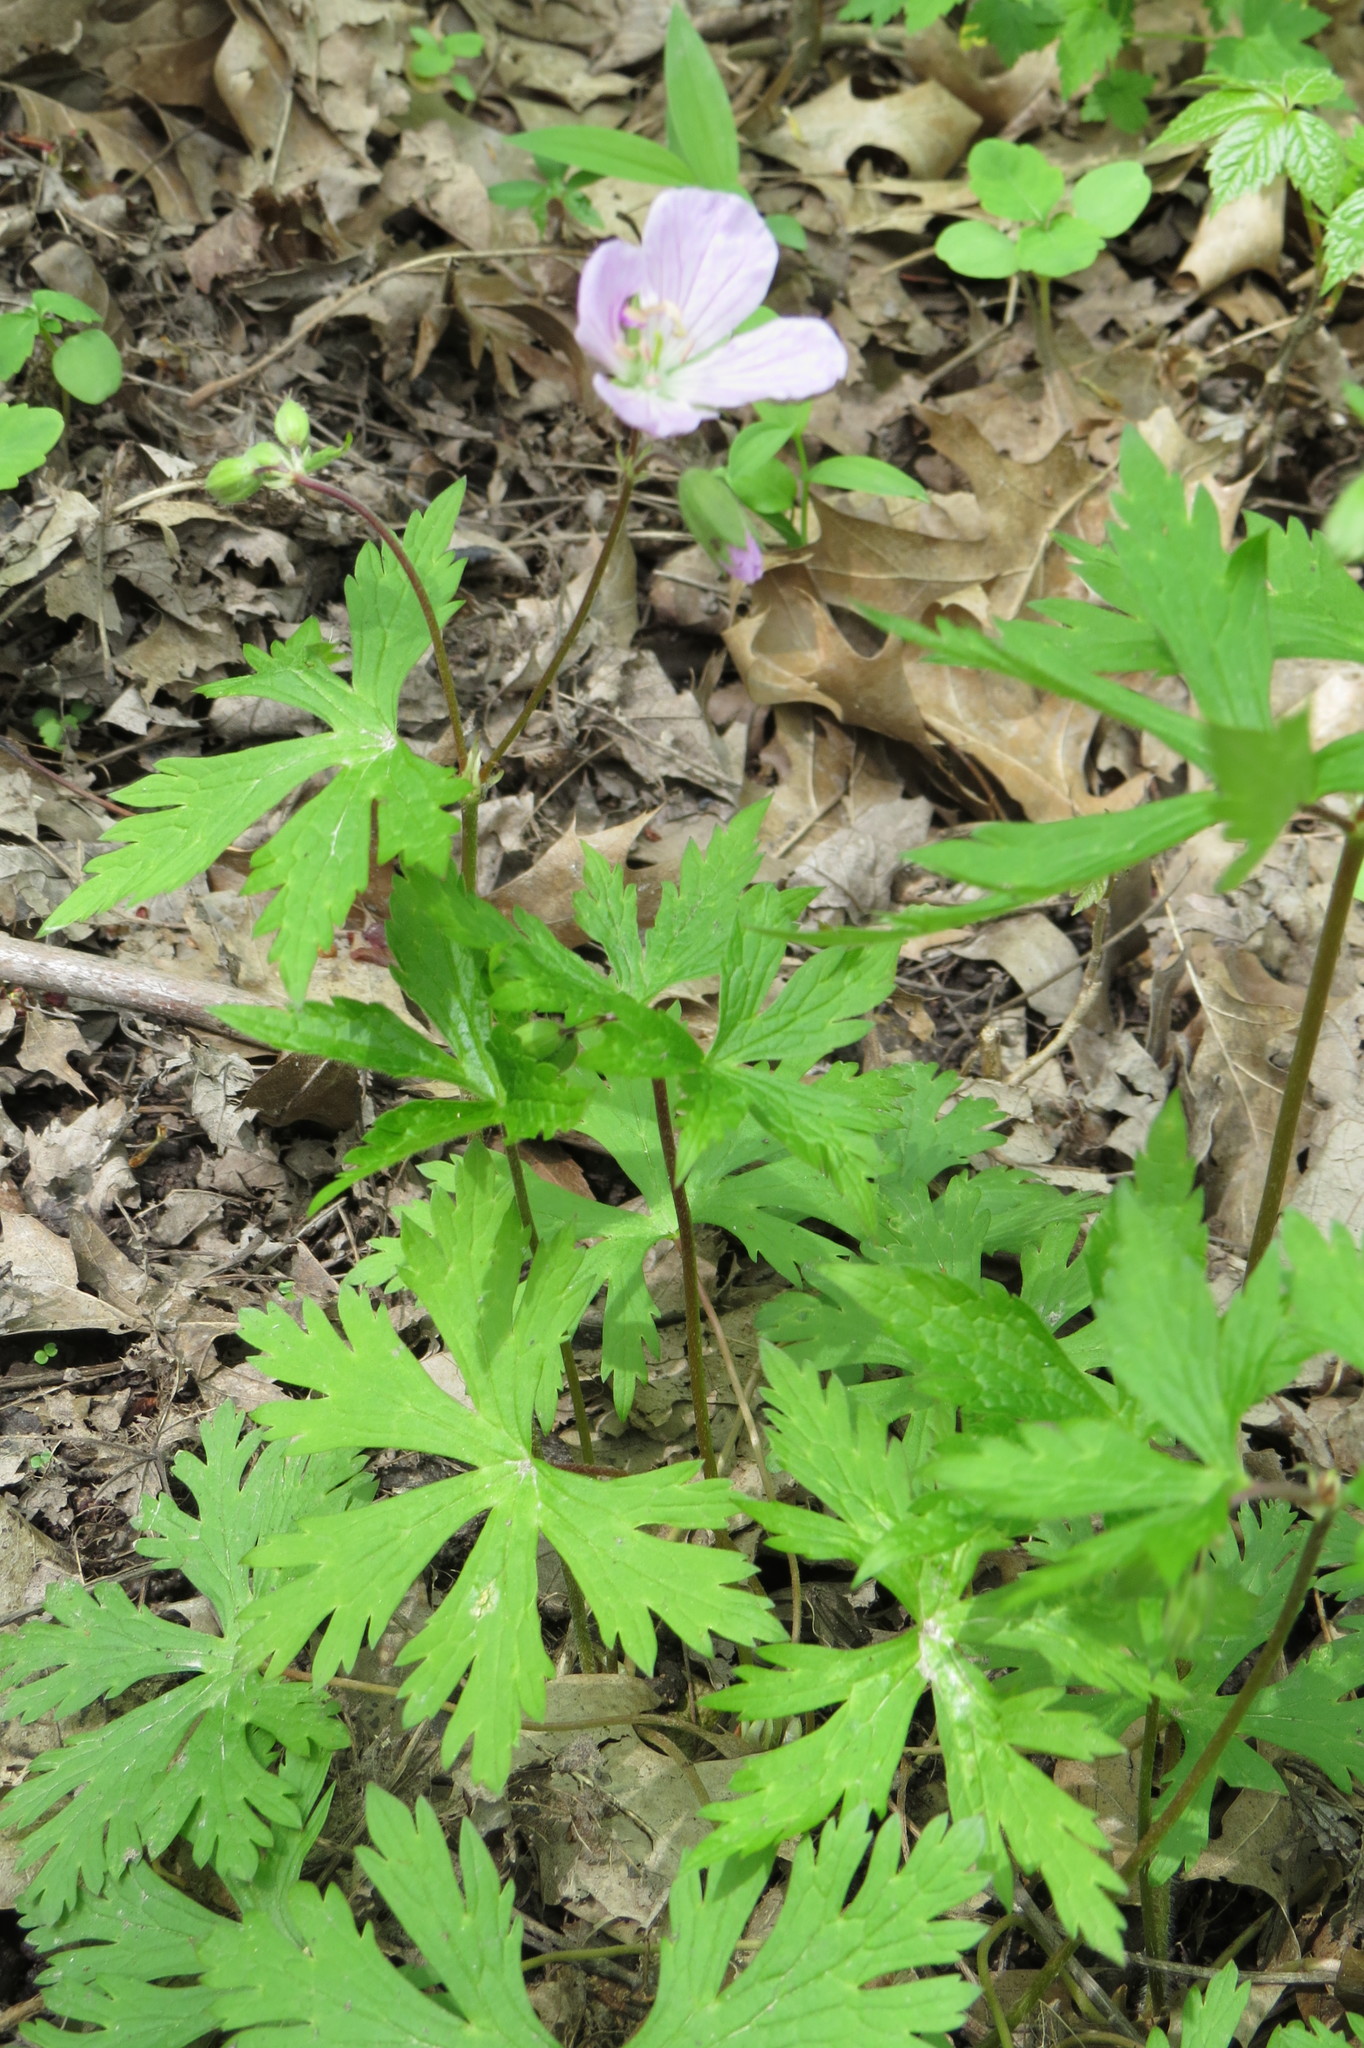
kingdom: Plantae
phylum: Tracheophyta
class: Magnoliopsida
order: Geraniales
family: Geraniaceae
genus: Geranium
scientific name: Geranium maculatum
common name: Spotted geranium
